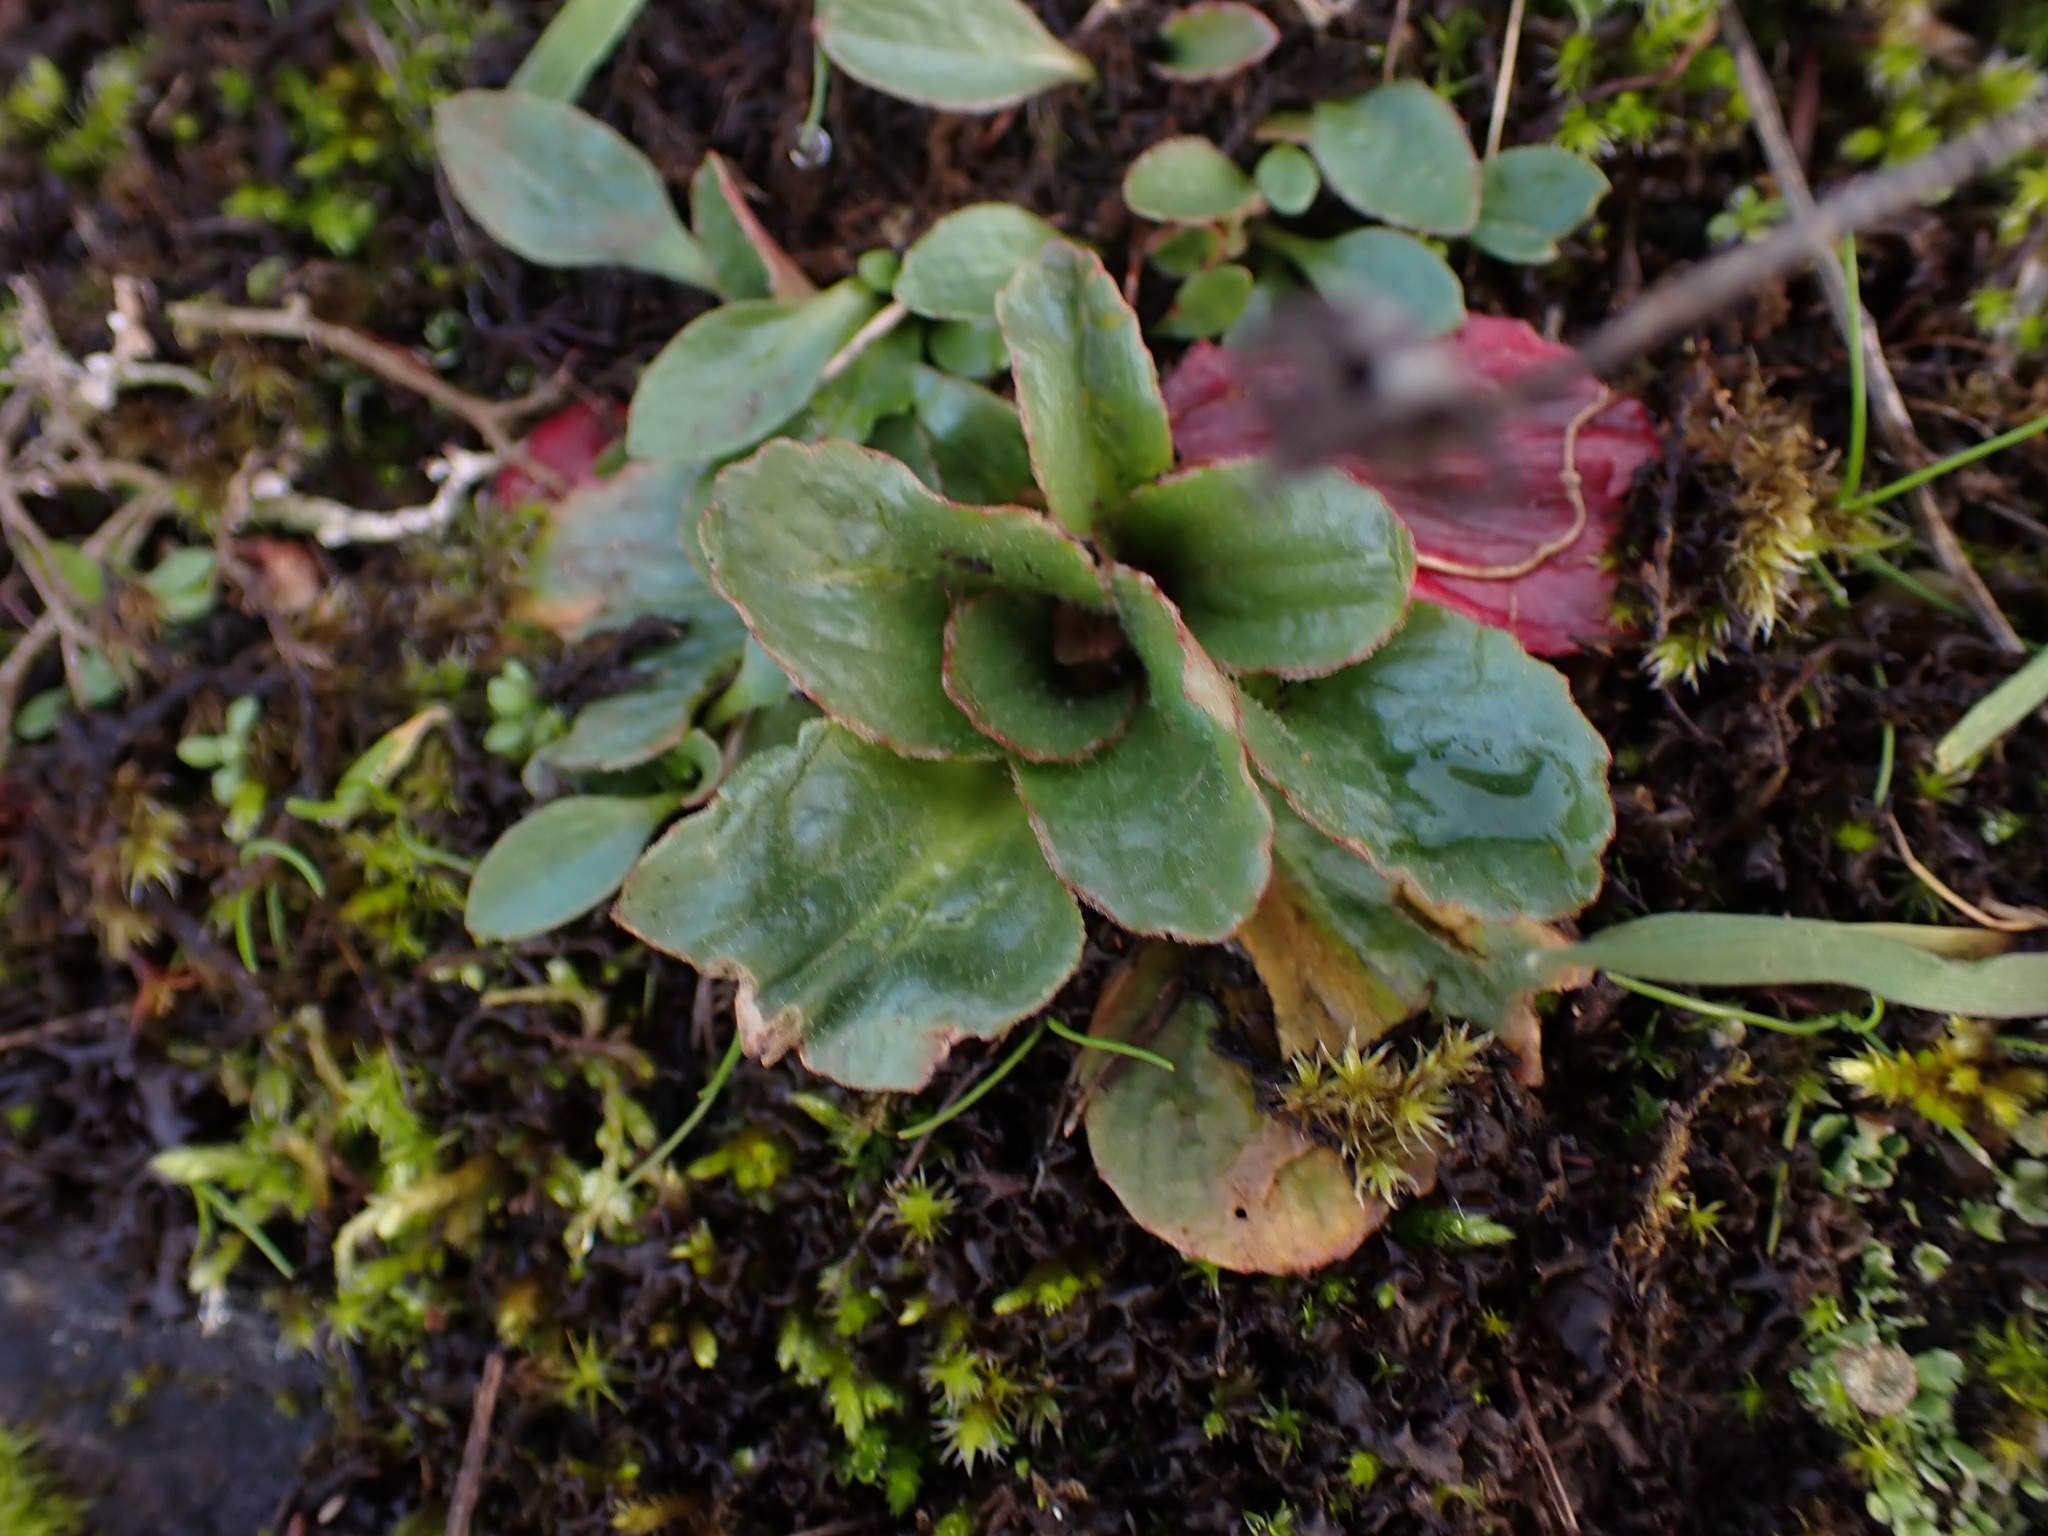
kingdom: Plantae
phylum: Tracheophyta
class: Magnoliopsida
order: Saxifragales
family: Saxifragaceae
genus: Micranthes
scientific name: Micranthes integrifolia
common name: Wholeleaf saxifrage
